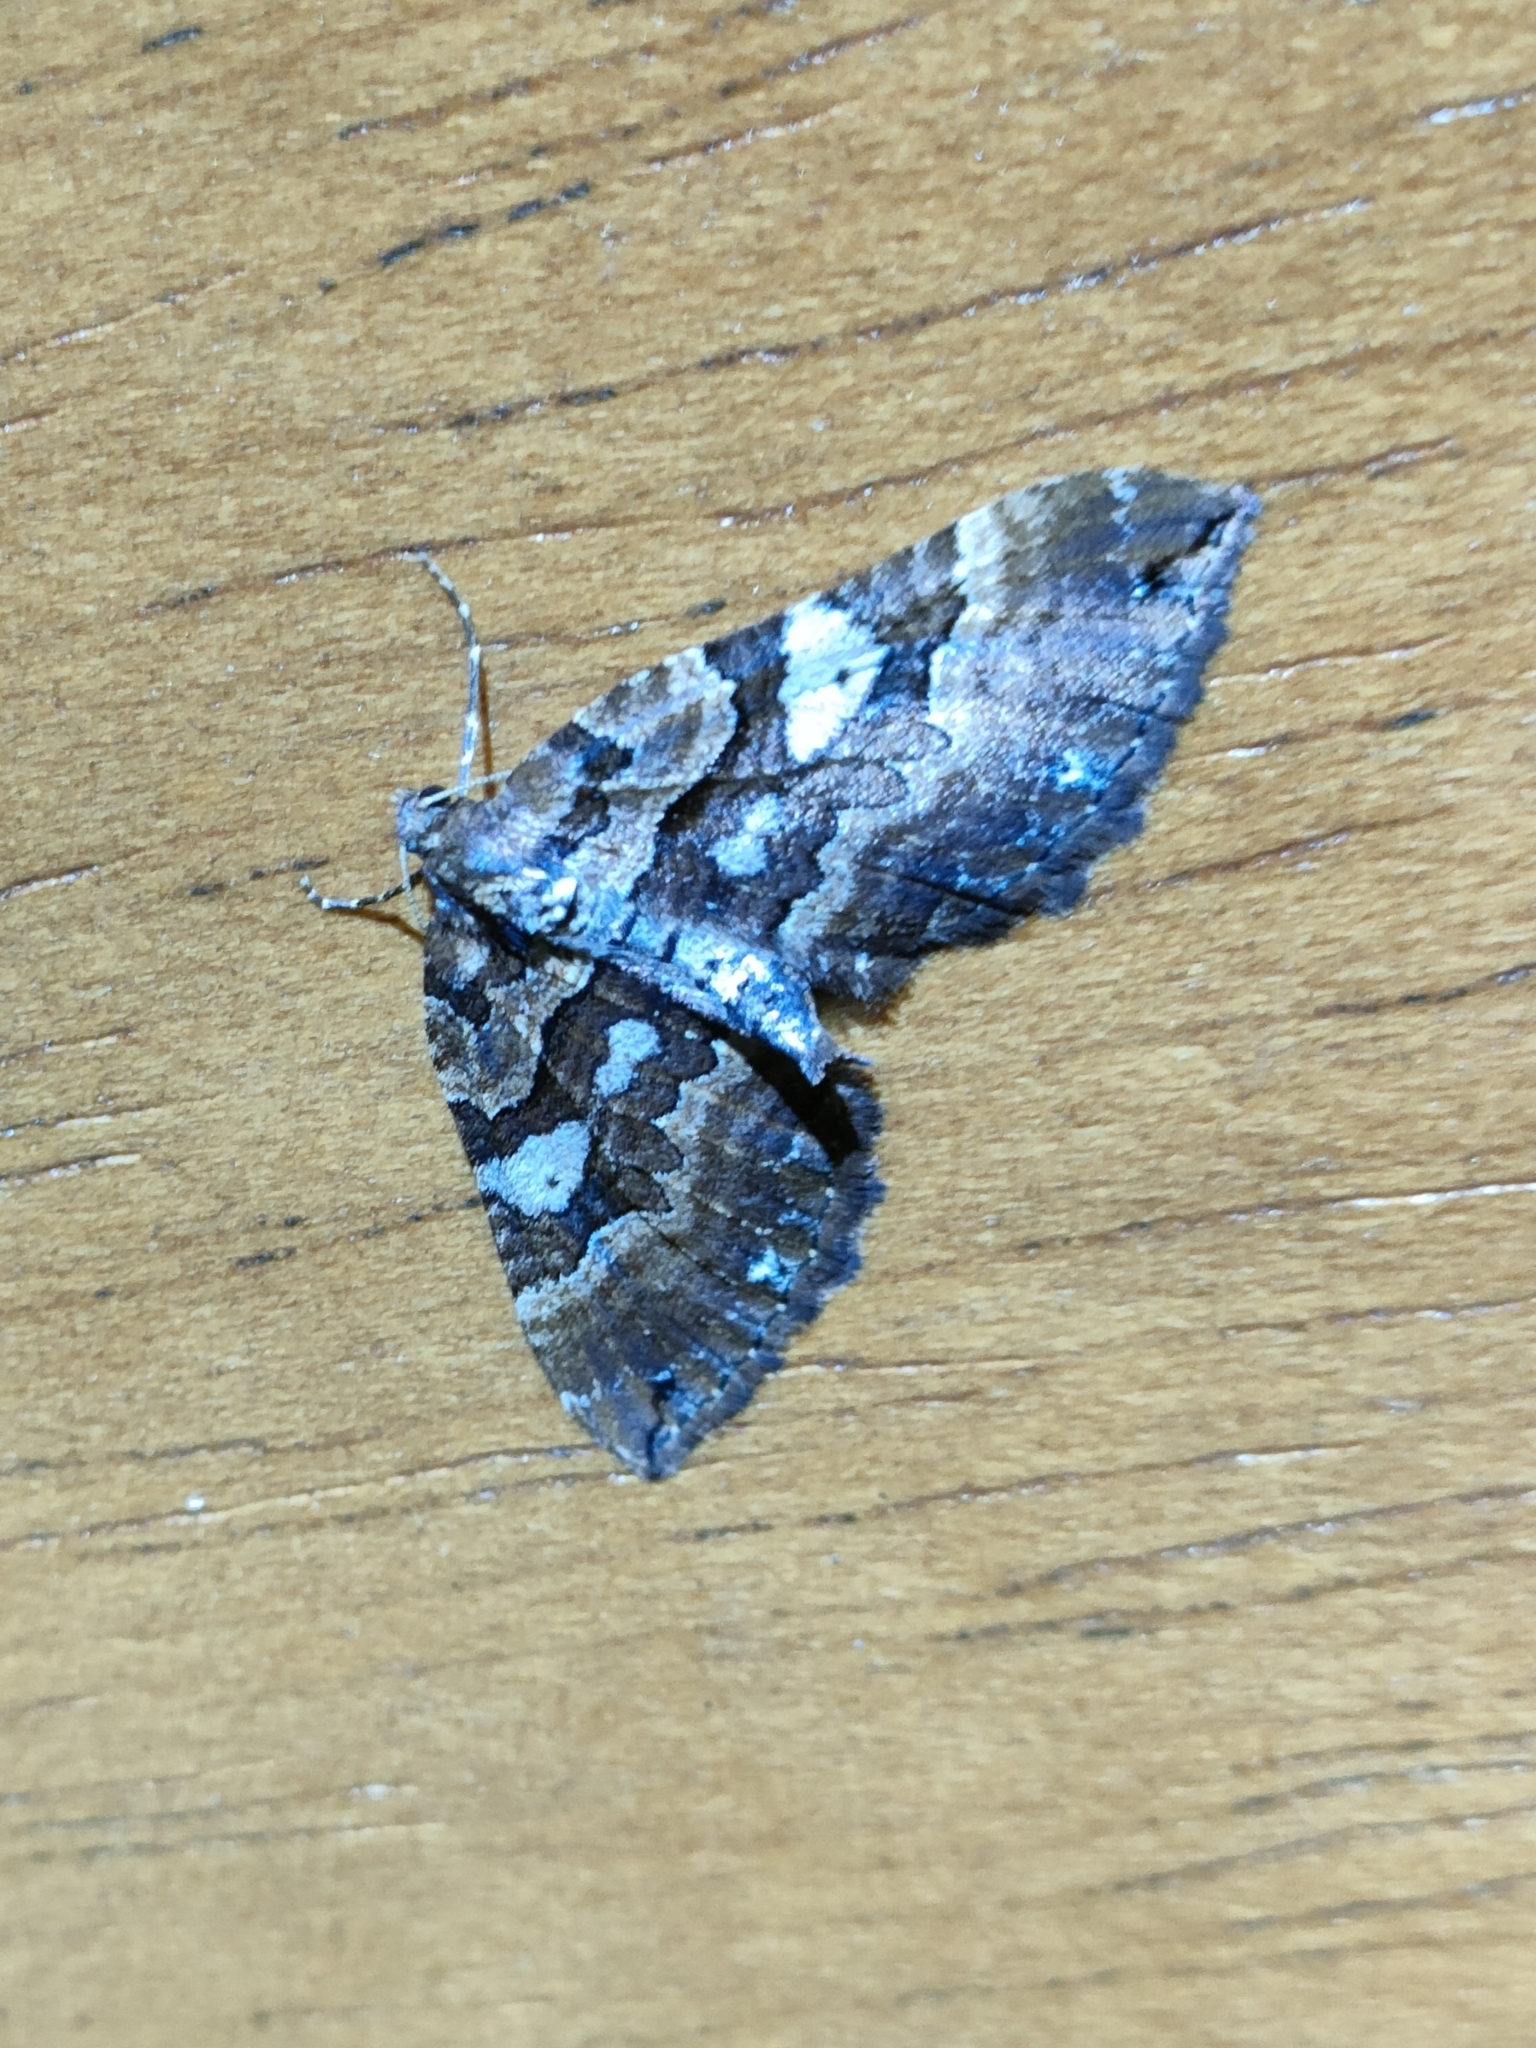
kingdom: Animalia
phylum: Arthropoda
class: Insecta
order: Lepidoptera
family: Geometridae
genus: Anticlea
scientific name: Anticlea badiata
